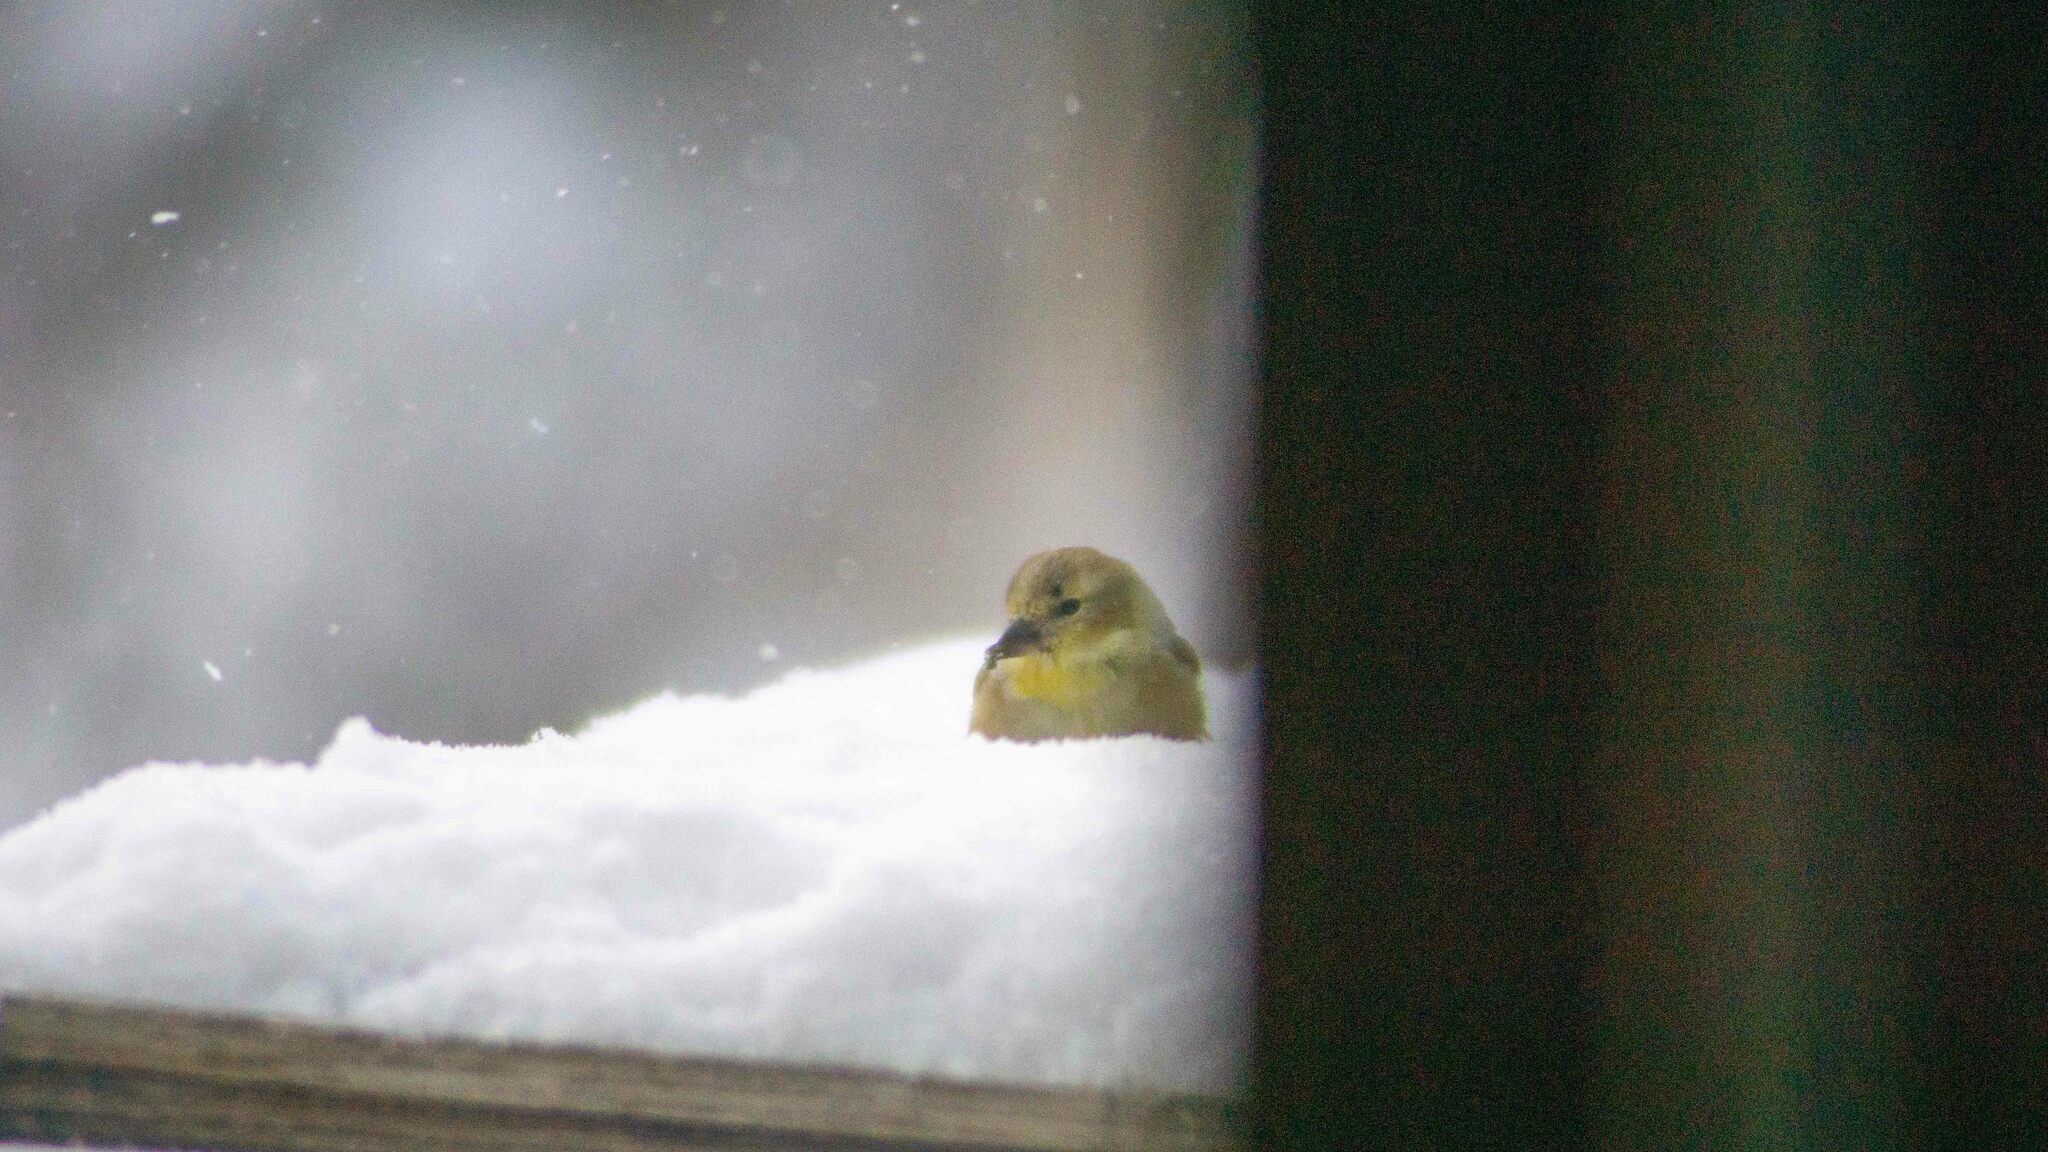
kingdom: Animalia
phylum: Chordata
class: Aves
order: Passeriformes
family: Fringillidae
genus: Spinus
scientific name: Spinus tristis
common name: American goldfinch
